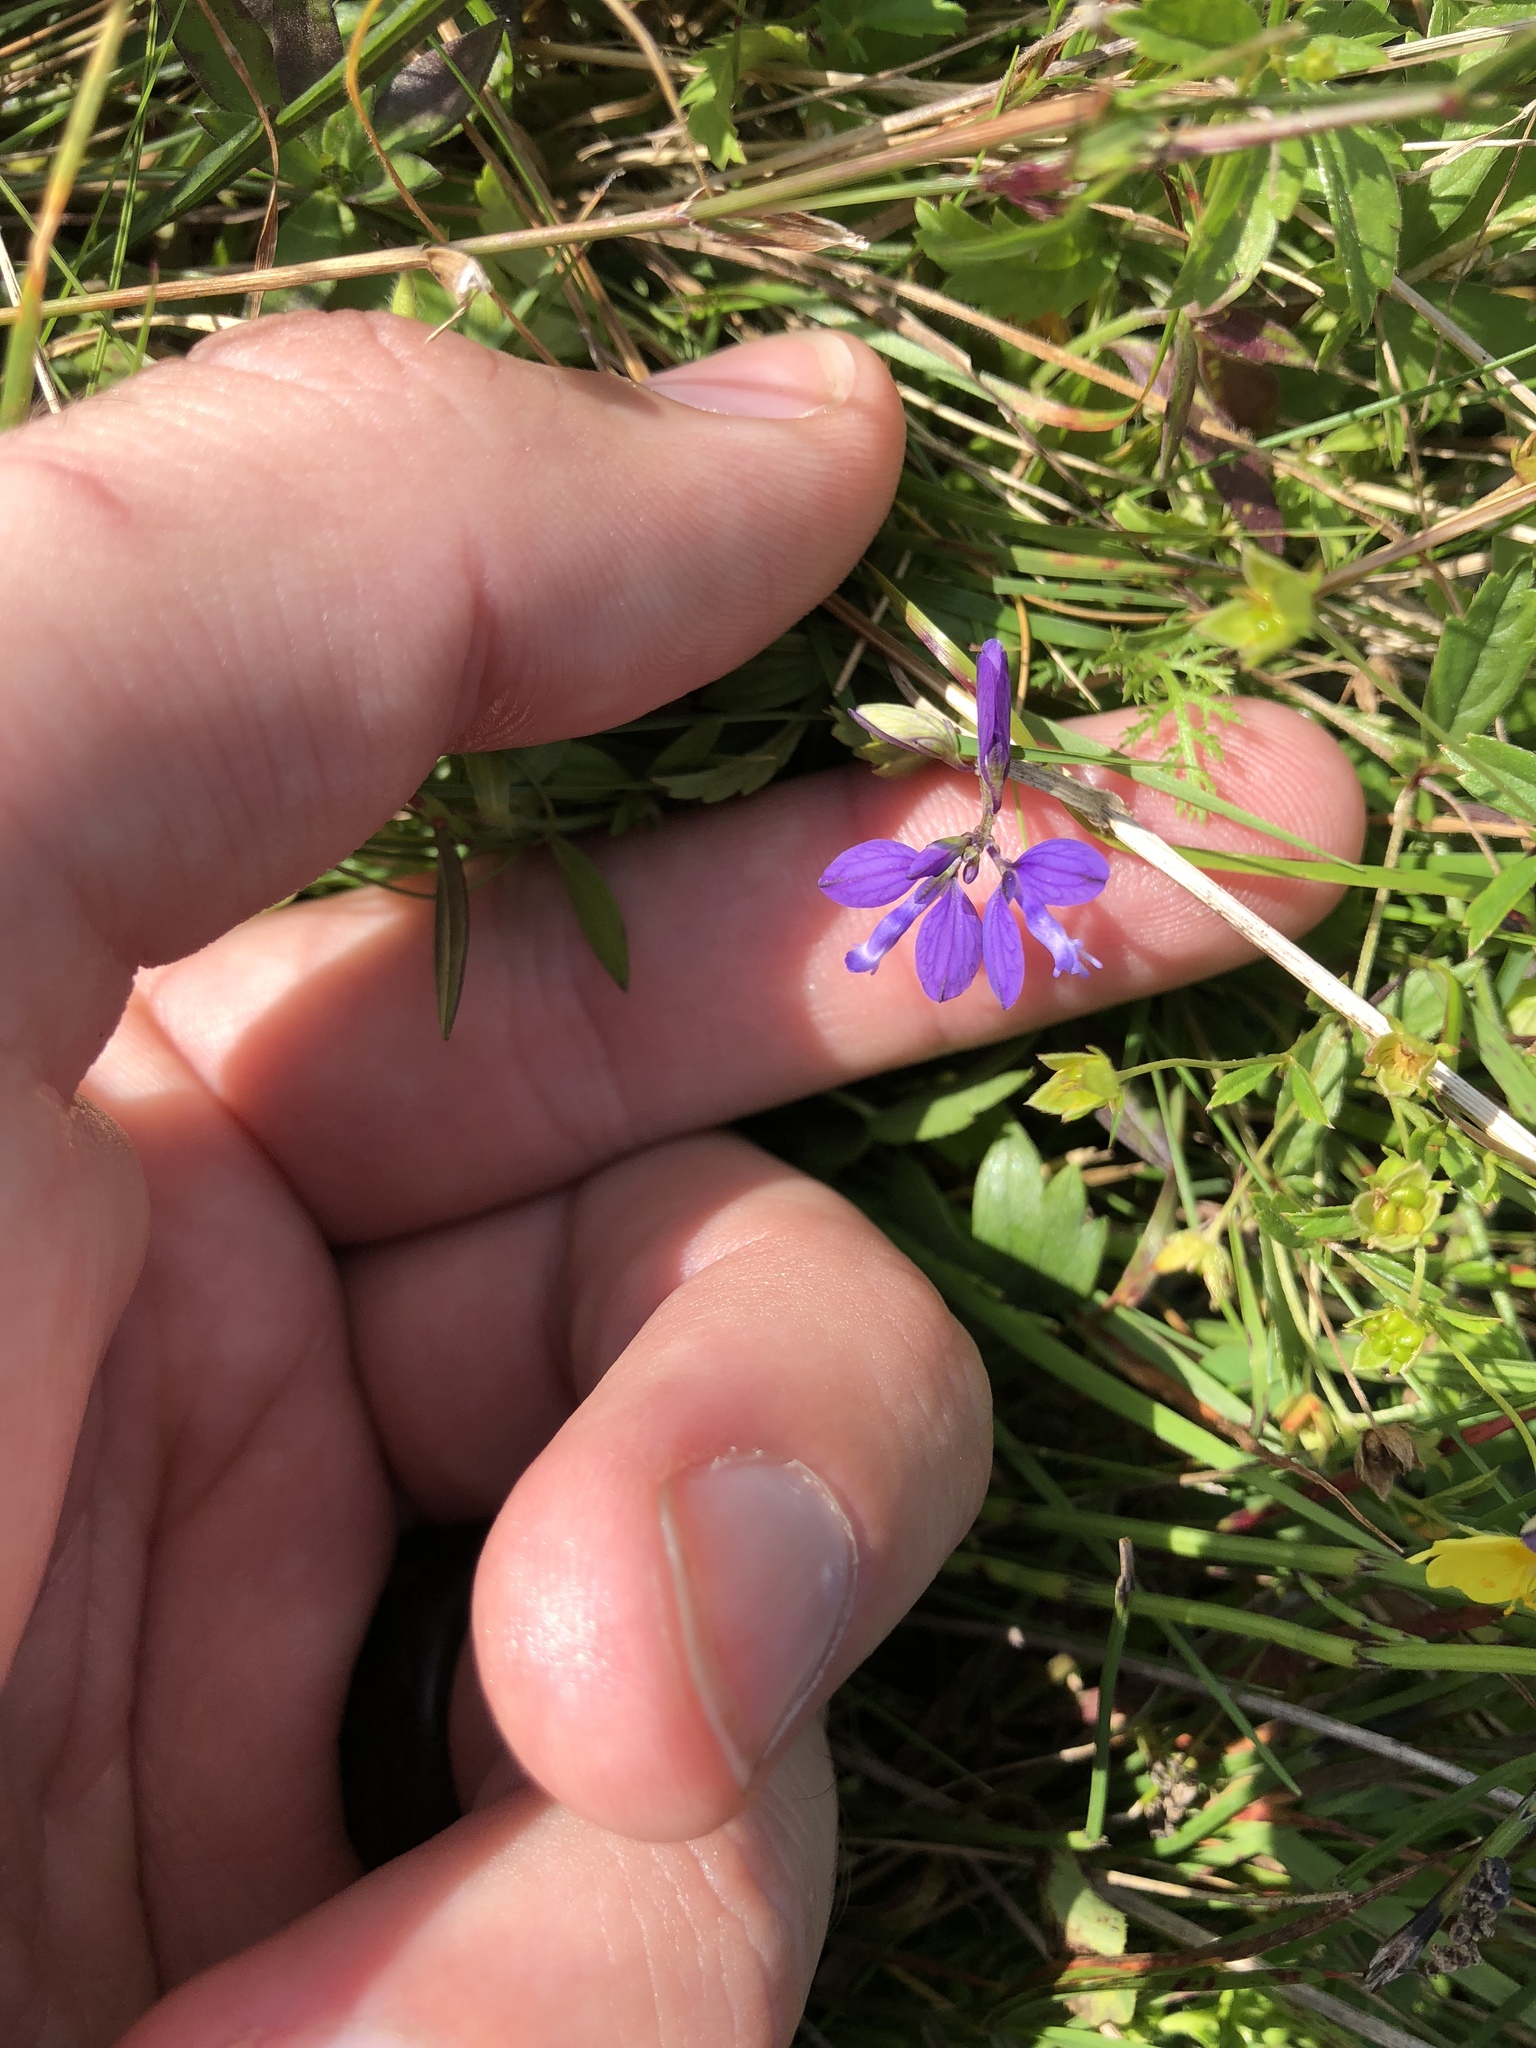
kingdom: Plantae
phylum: Tracheophyta
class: Magnoliopsida
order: Fabales
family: Polygalaceae
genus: Polygala
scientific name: Polygala vulgaris
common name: Common milkwort
